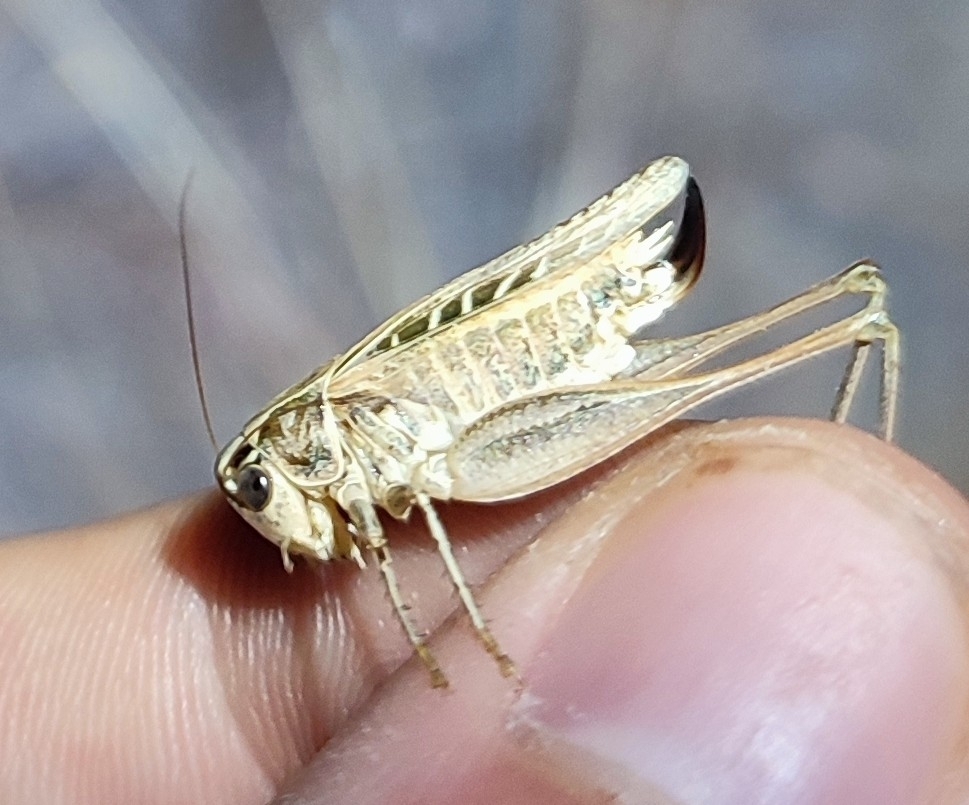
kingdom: Animalia
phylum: Arthropoda
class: Insecta
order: Orthoptera
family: Tettigoniidae
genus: Tessellana
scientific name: Tessellana tessellata
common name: Grasshopper
